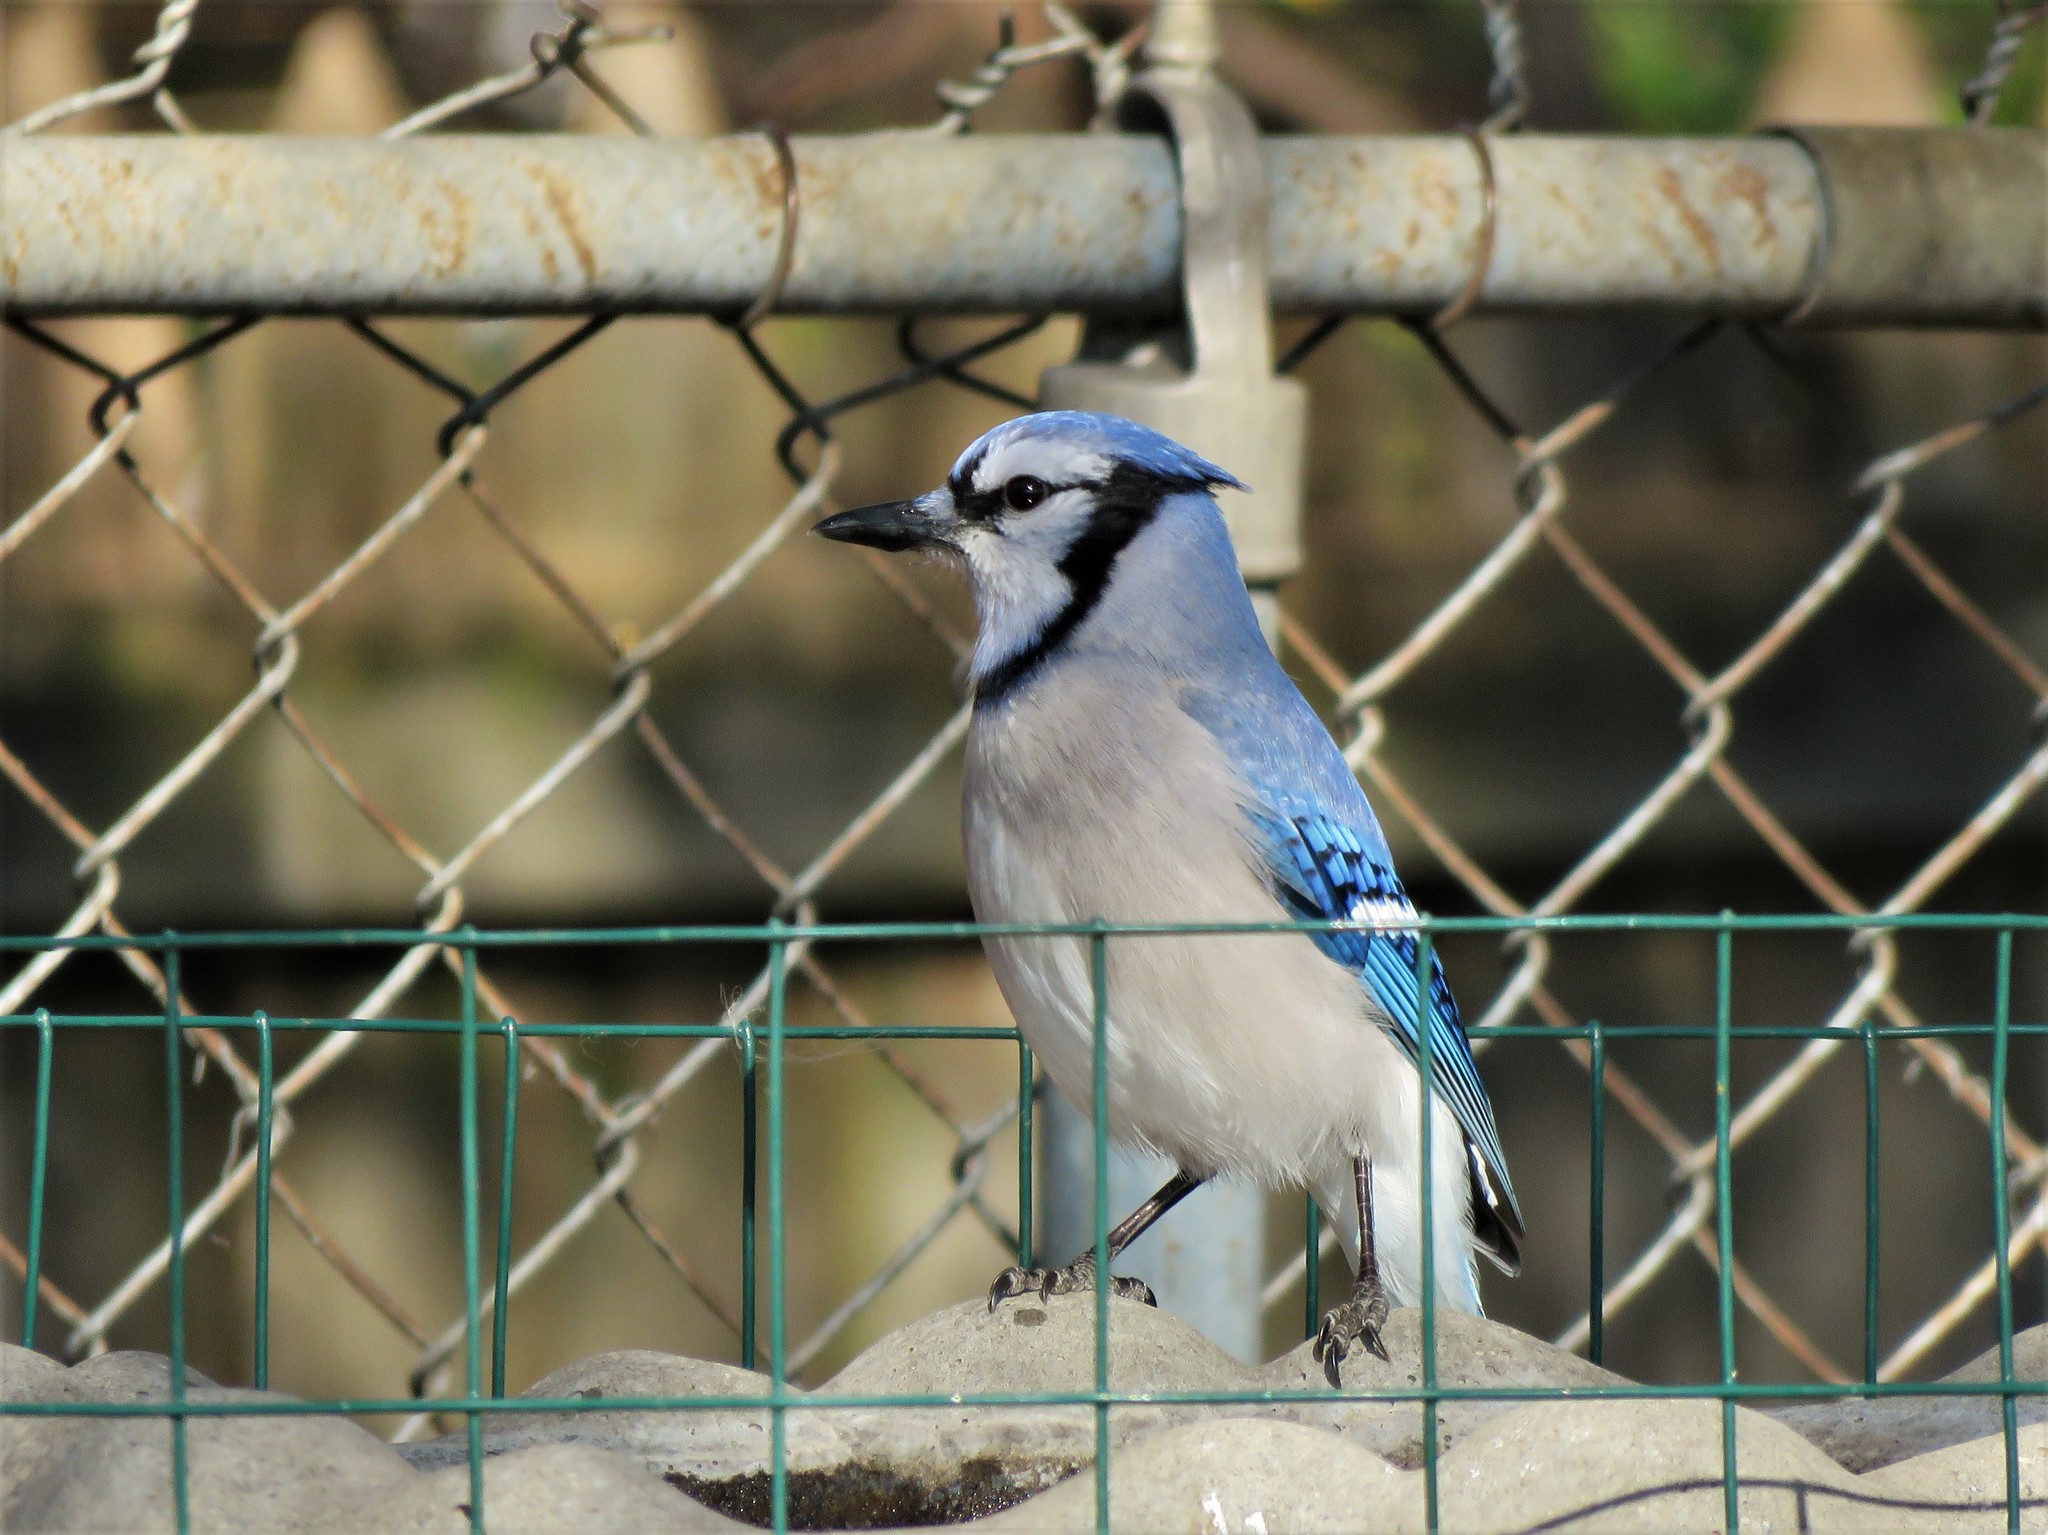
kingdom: Animalia
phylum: Chordata
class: Aves
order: Passeriformes
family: Corvidae
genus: Cyanocitta
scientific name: Cyanocitta cristata
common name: Blue jay
